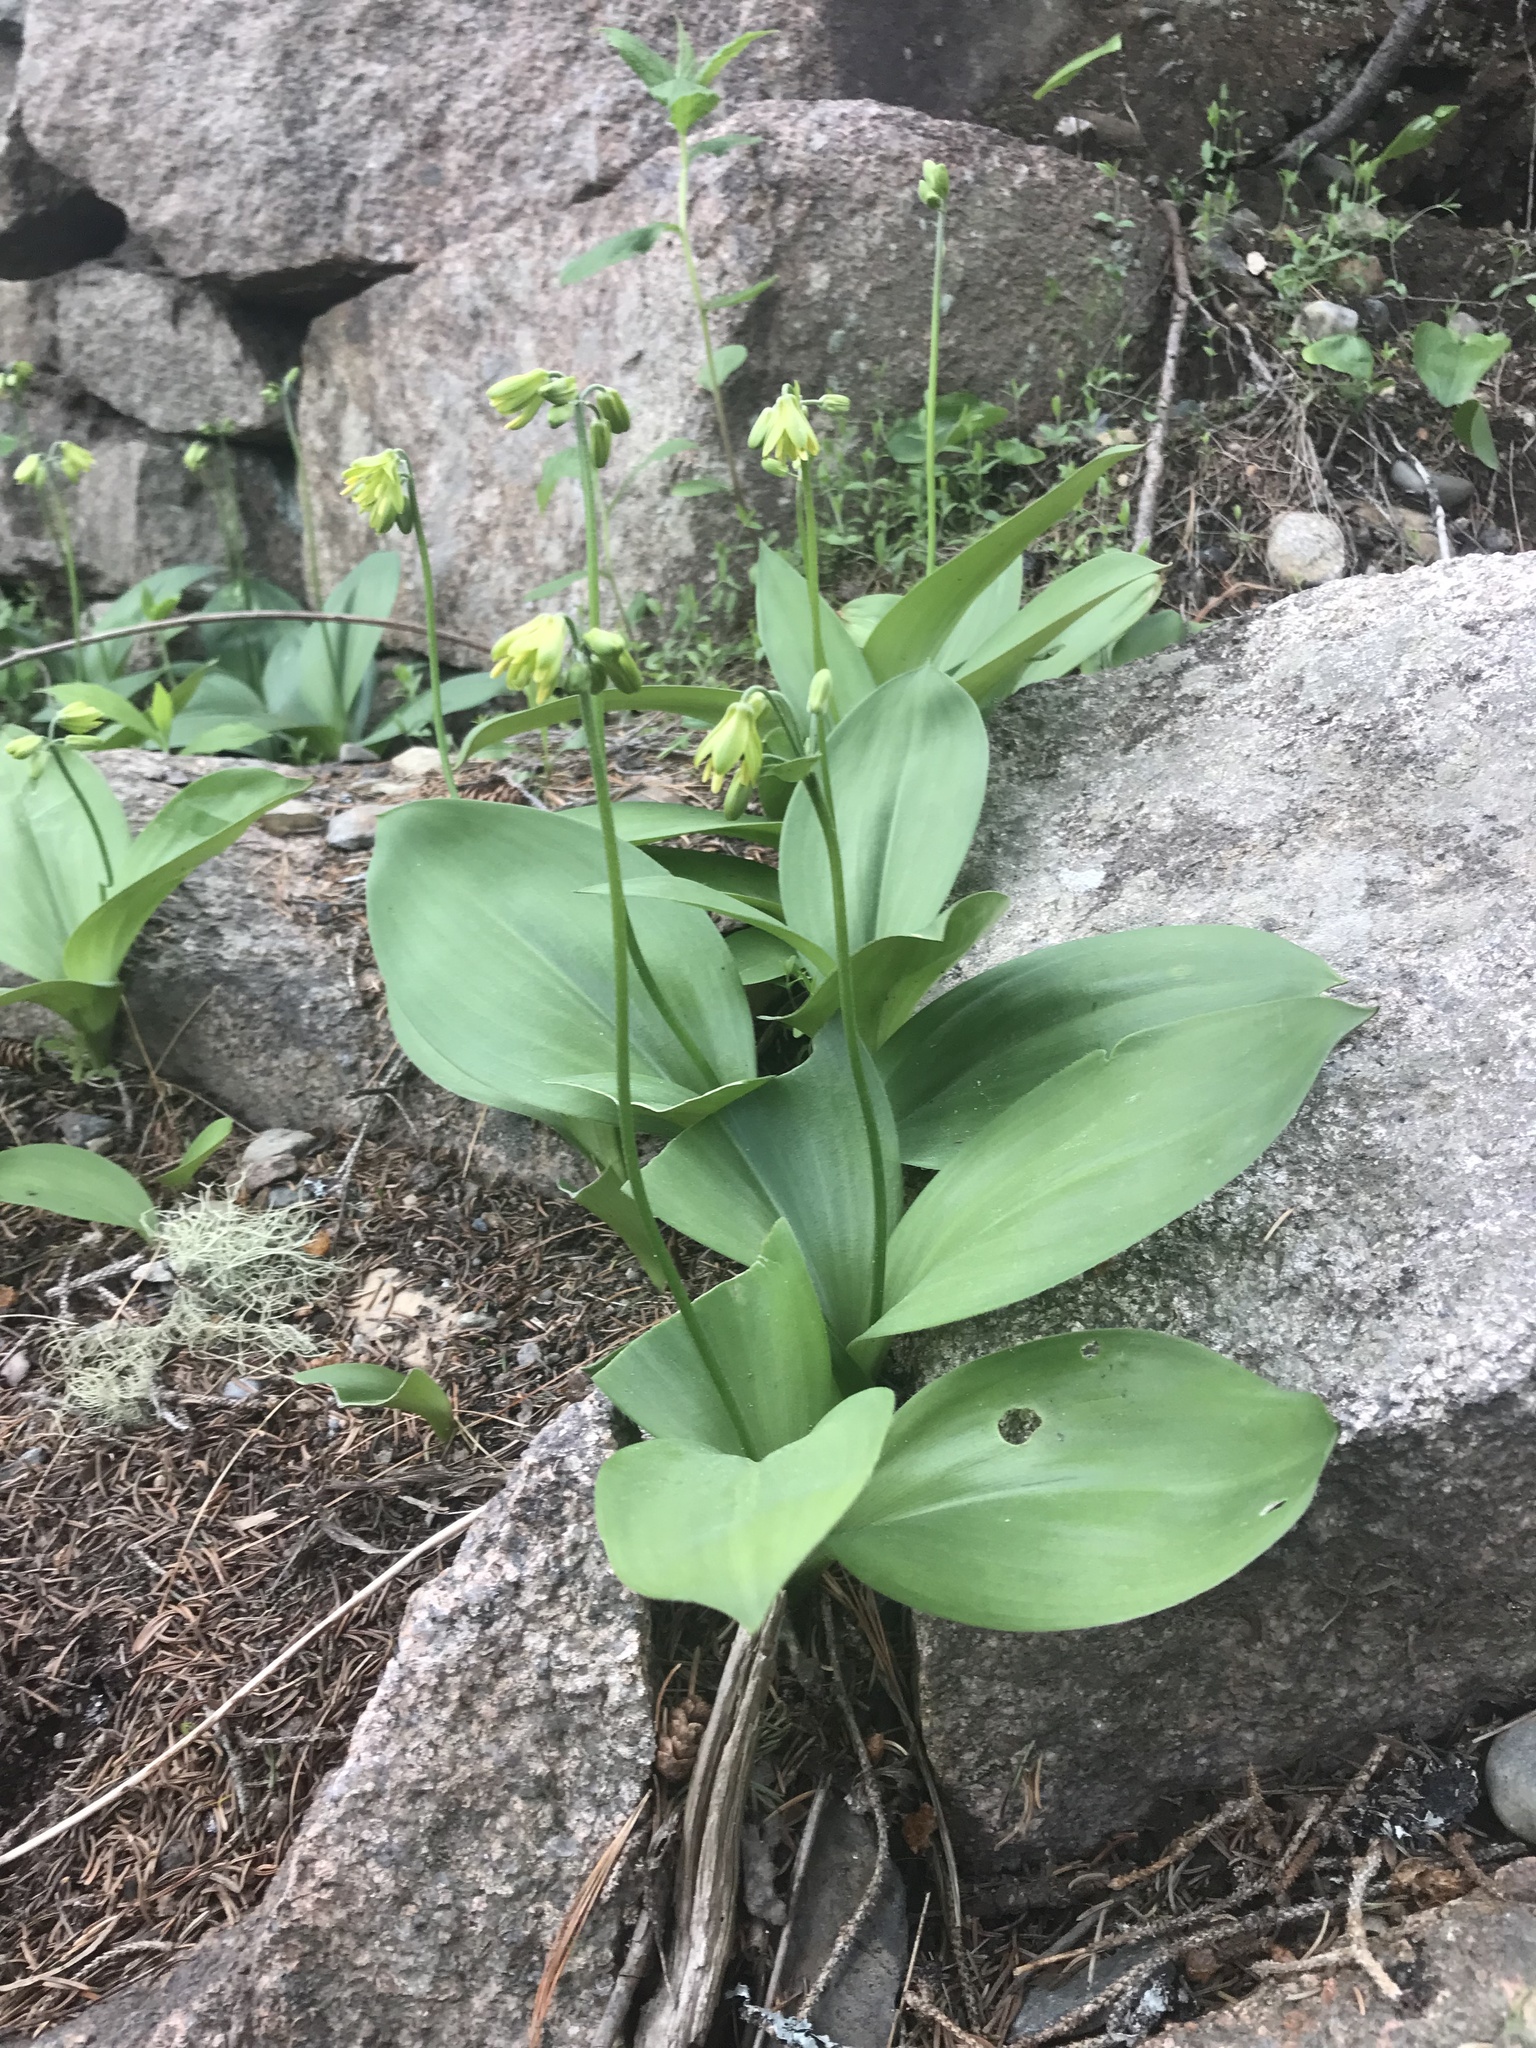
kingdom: Plantae
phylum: Tracheophyta
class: Liliopsida
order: Liliales
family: Liliaceae
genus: Clintonia
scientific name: Clintonia borealis
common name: Yellow clintonia
